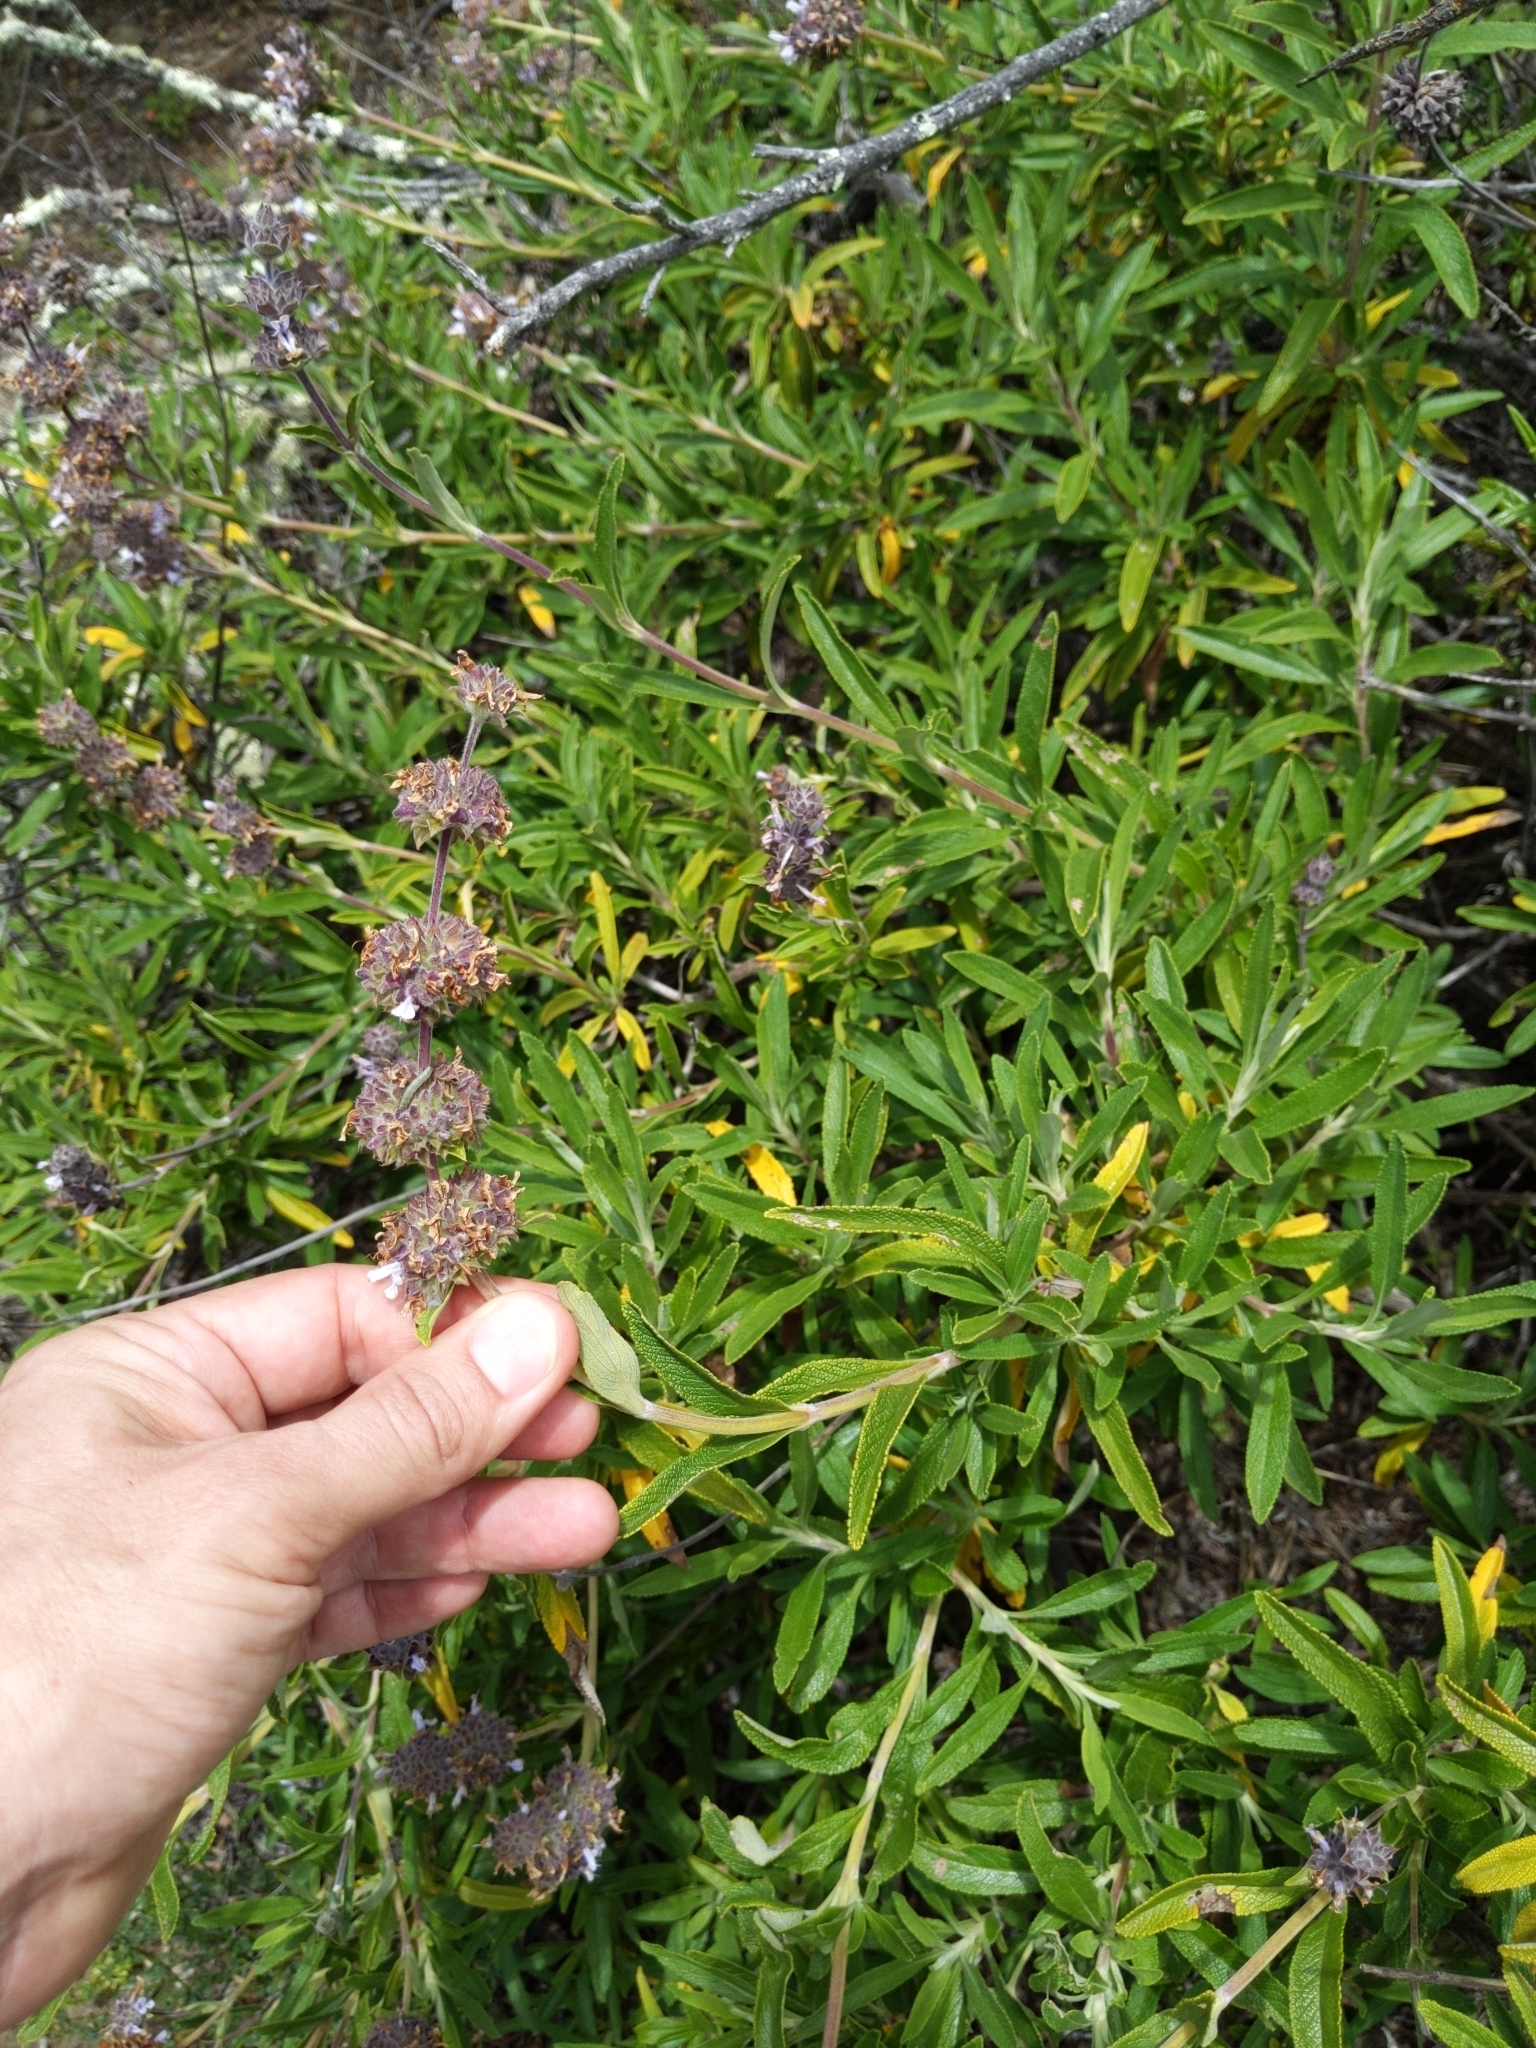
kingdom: Plantae
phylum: Tracheophyta
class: Magnoliopsida
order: Lamiales
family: Lamiaceae
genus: Salvia
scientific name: Salvia mellifera
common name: Black sage
